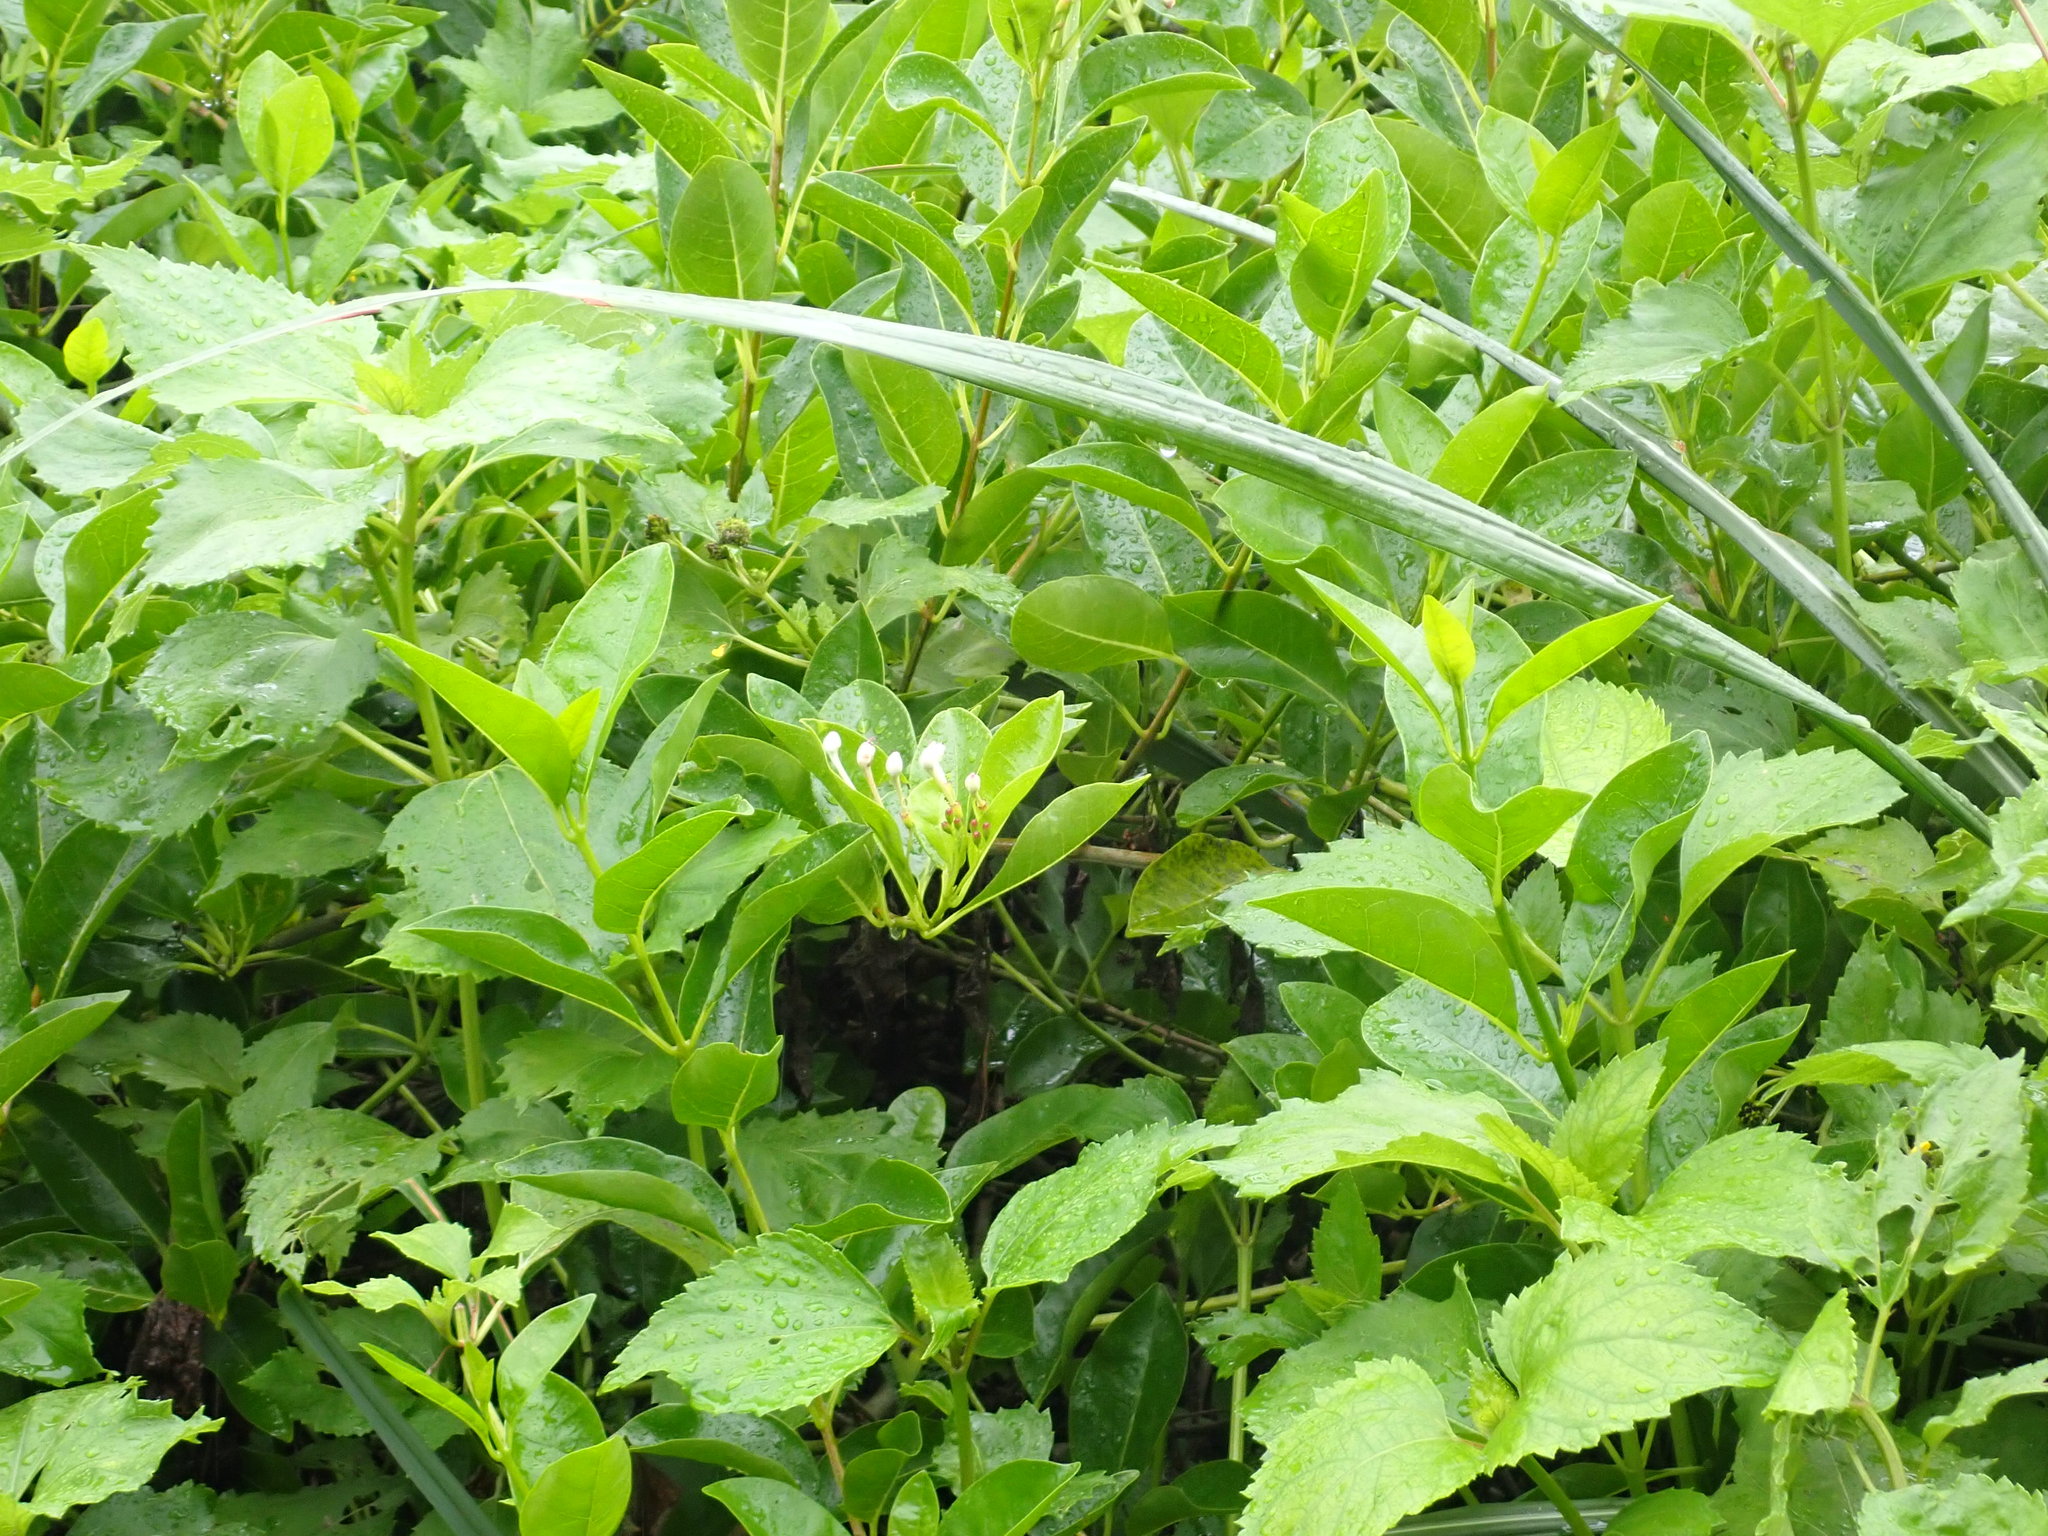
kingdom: Plantae
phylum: Tracheophyta
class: Magnoliopsida
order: Lamiales
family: Lamiaceae
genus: Volkameria
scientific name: Volkameria inermis
